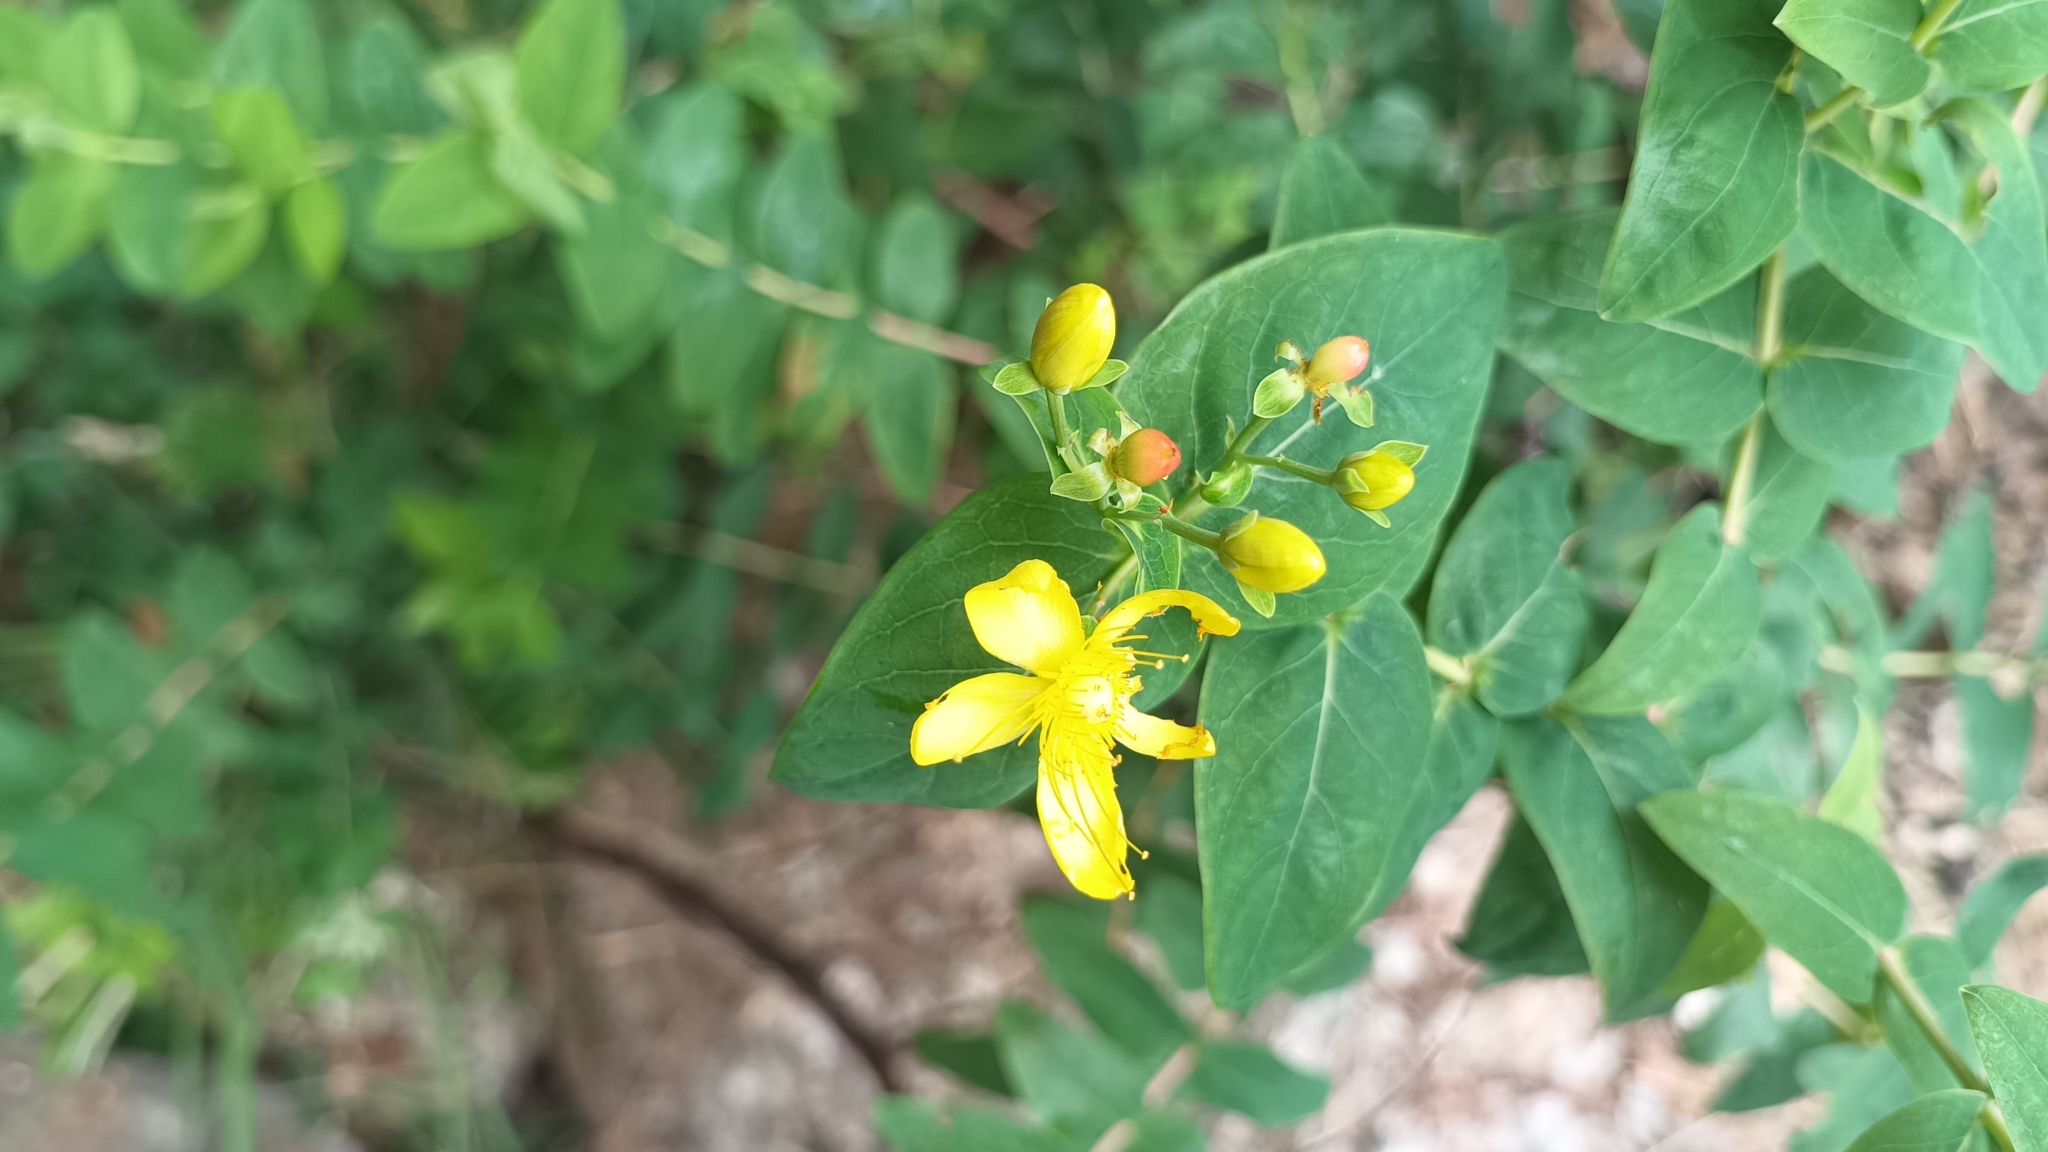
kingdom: Plantae
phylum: Tracheophyta
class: Magnoliopsida
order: Malpighiales
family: Hypericaceae
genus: Hypericum
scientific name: Hypericum hircinum
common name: Stinking tutsan
